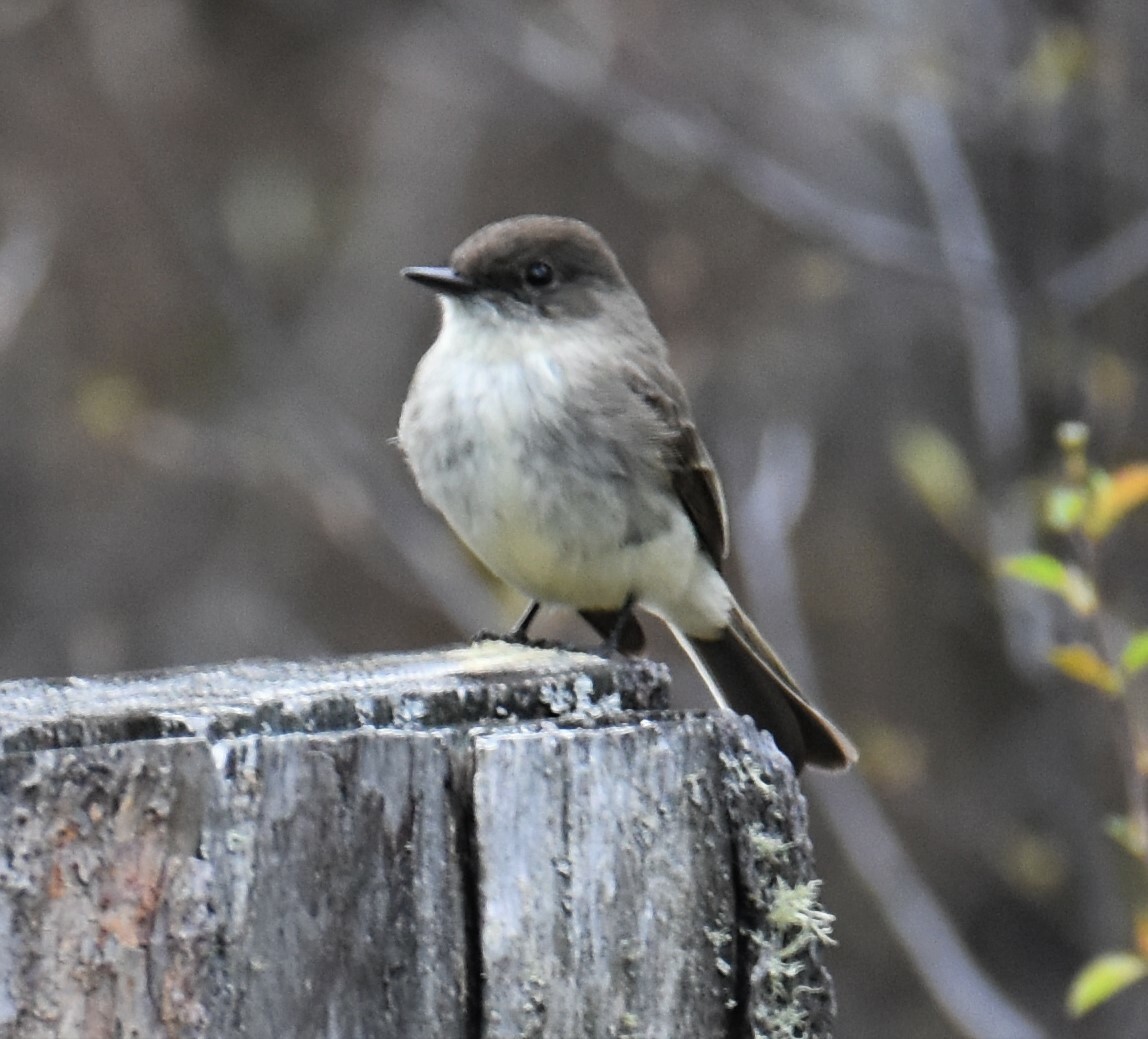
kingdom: Animalia
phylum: Chordata
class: Aves
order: Passeriformes
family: Tyrannidae
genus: Sayornis
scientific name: Sayornis phoebe
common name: Eastern phoebe
